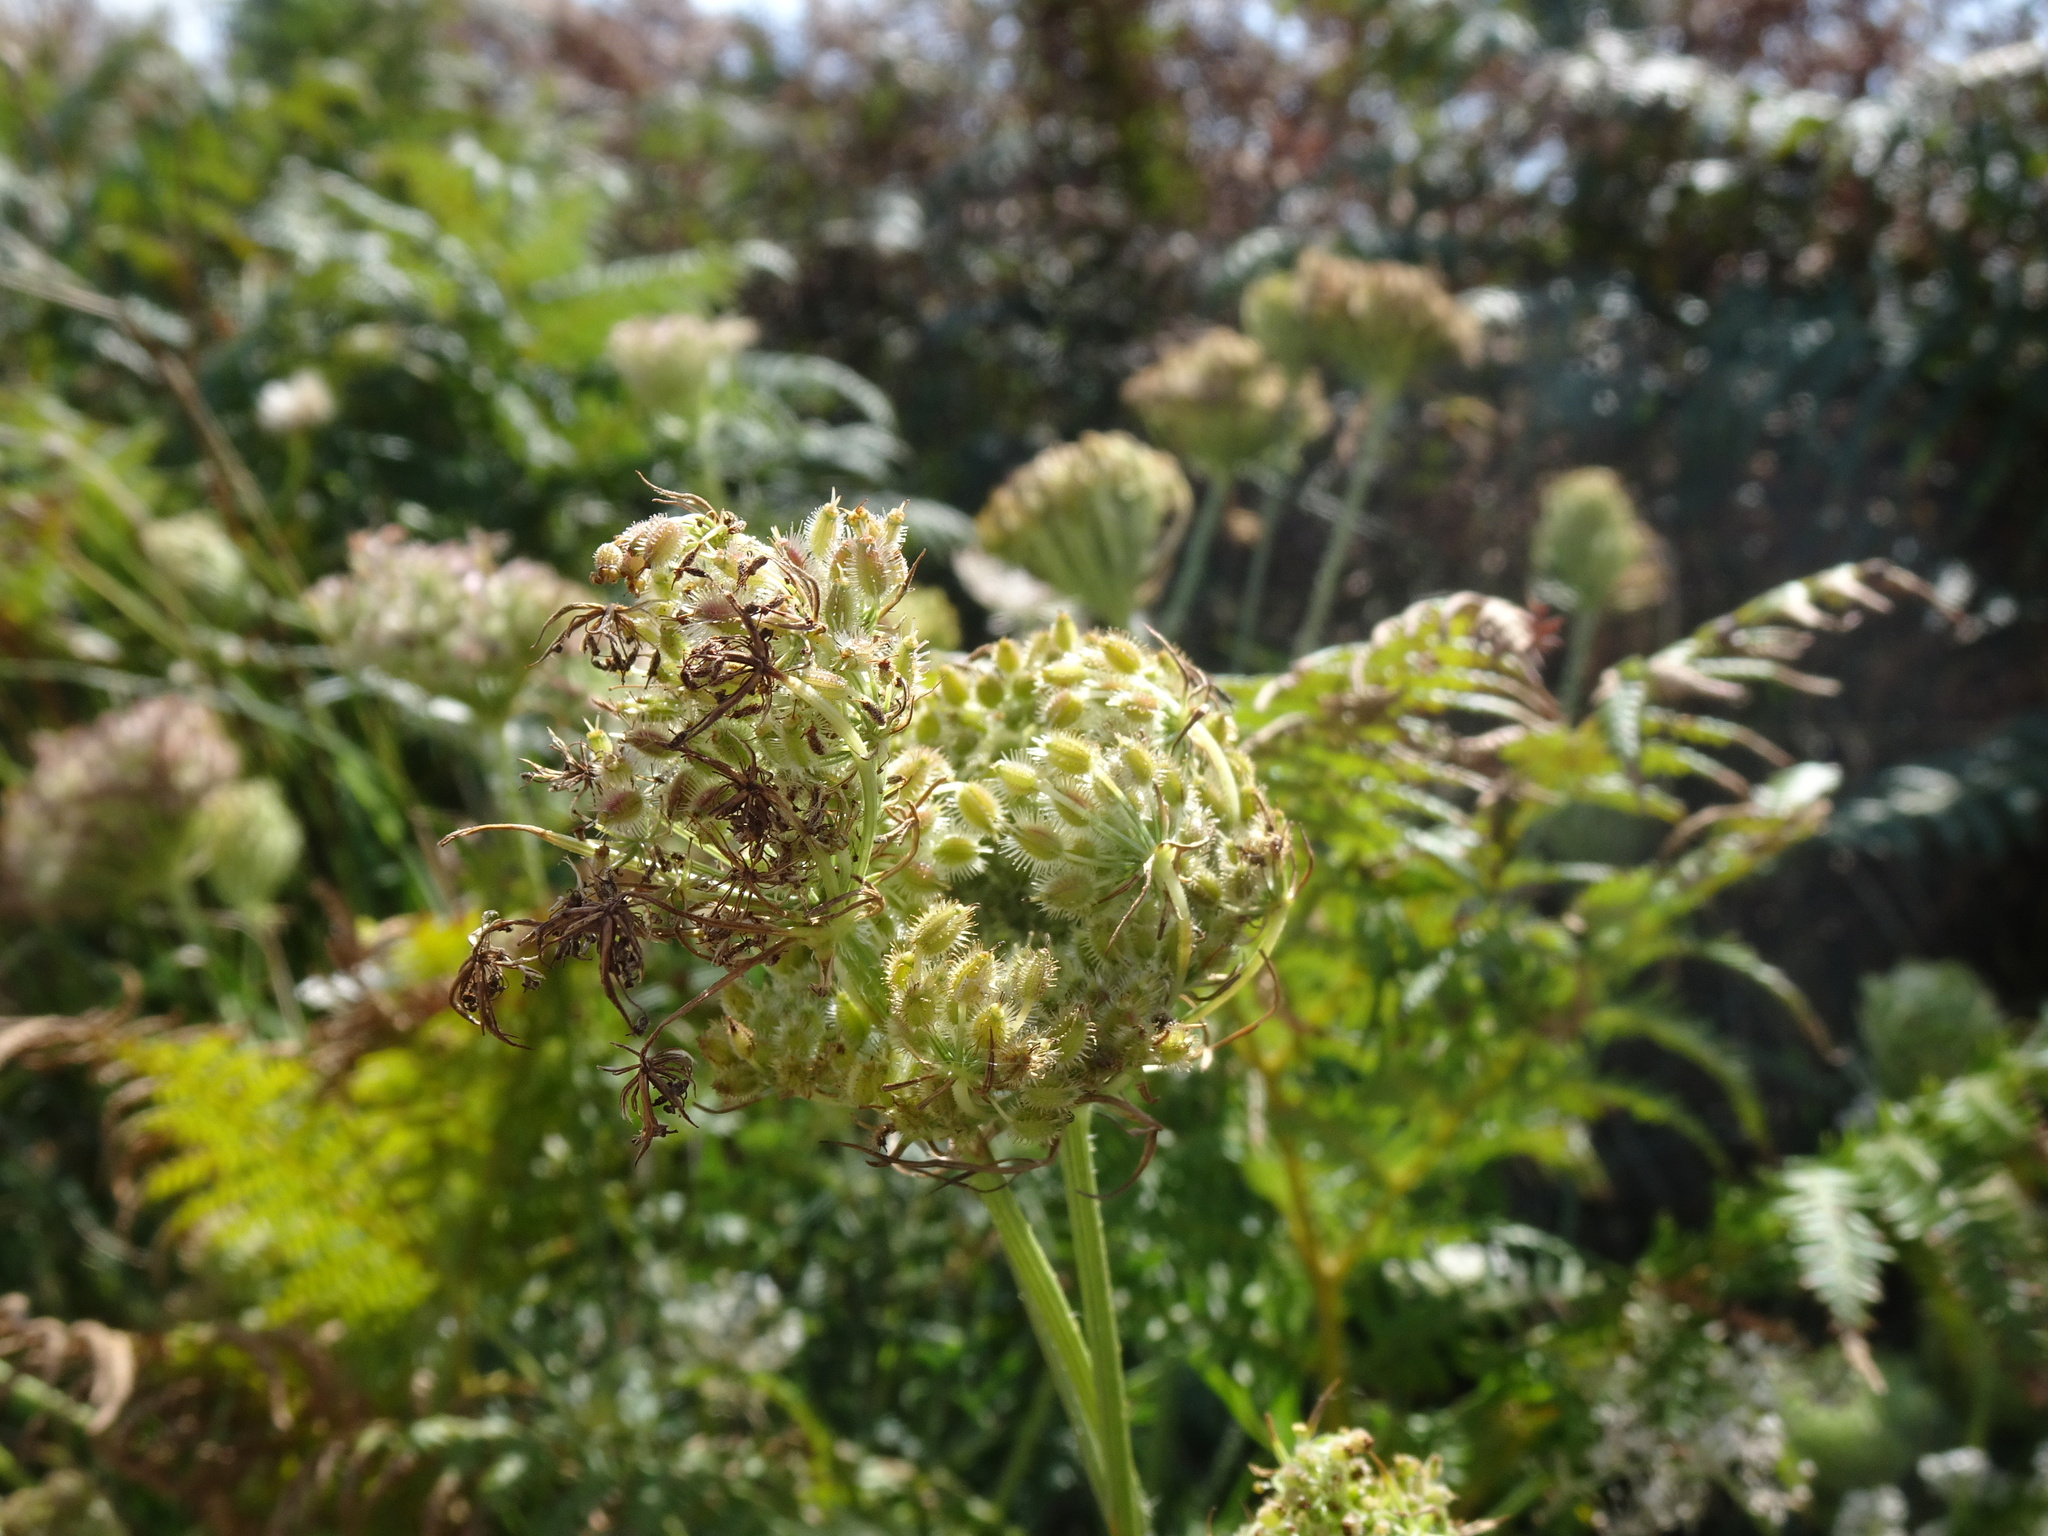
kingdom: Plantae
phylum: Tracheophyta
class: Magnoliopsida
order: Apiales
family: Apiaceae
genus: Daucus
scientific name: Daucus carota
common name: Wild carrot
